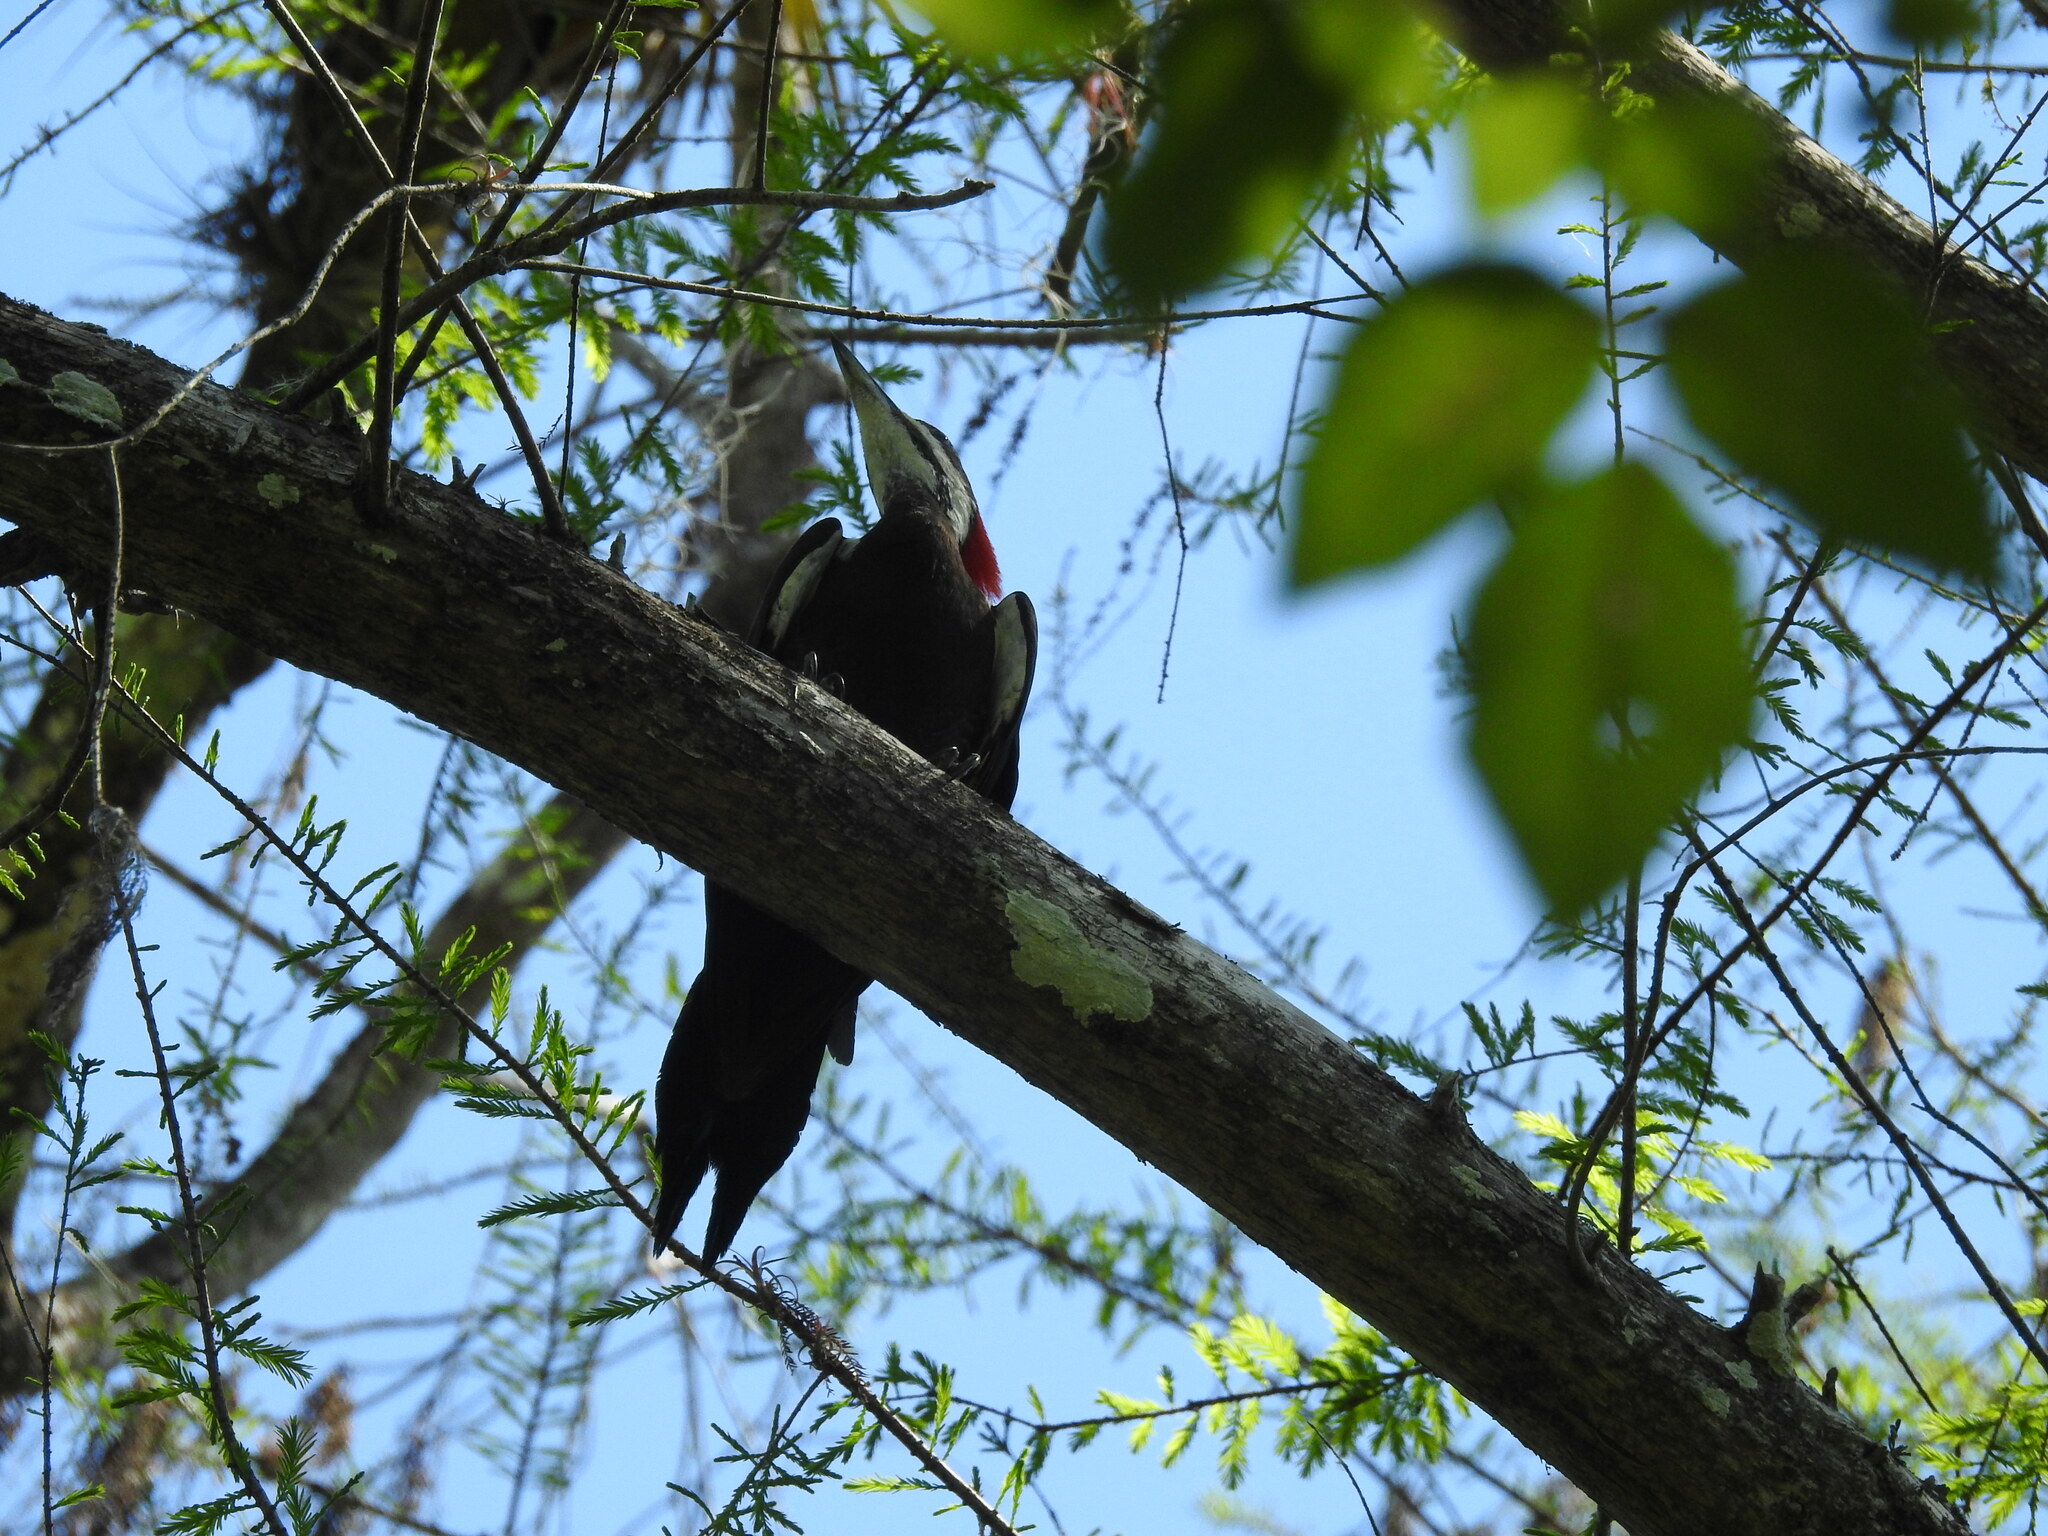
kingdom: Animalia
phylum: Chordata
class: Aves
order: Piciformes
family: Picidae
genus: Dryocopus
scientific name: Dryocopus pileatus
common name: Pileated woodpecker
